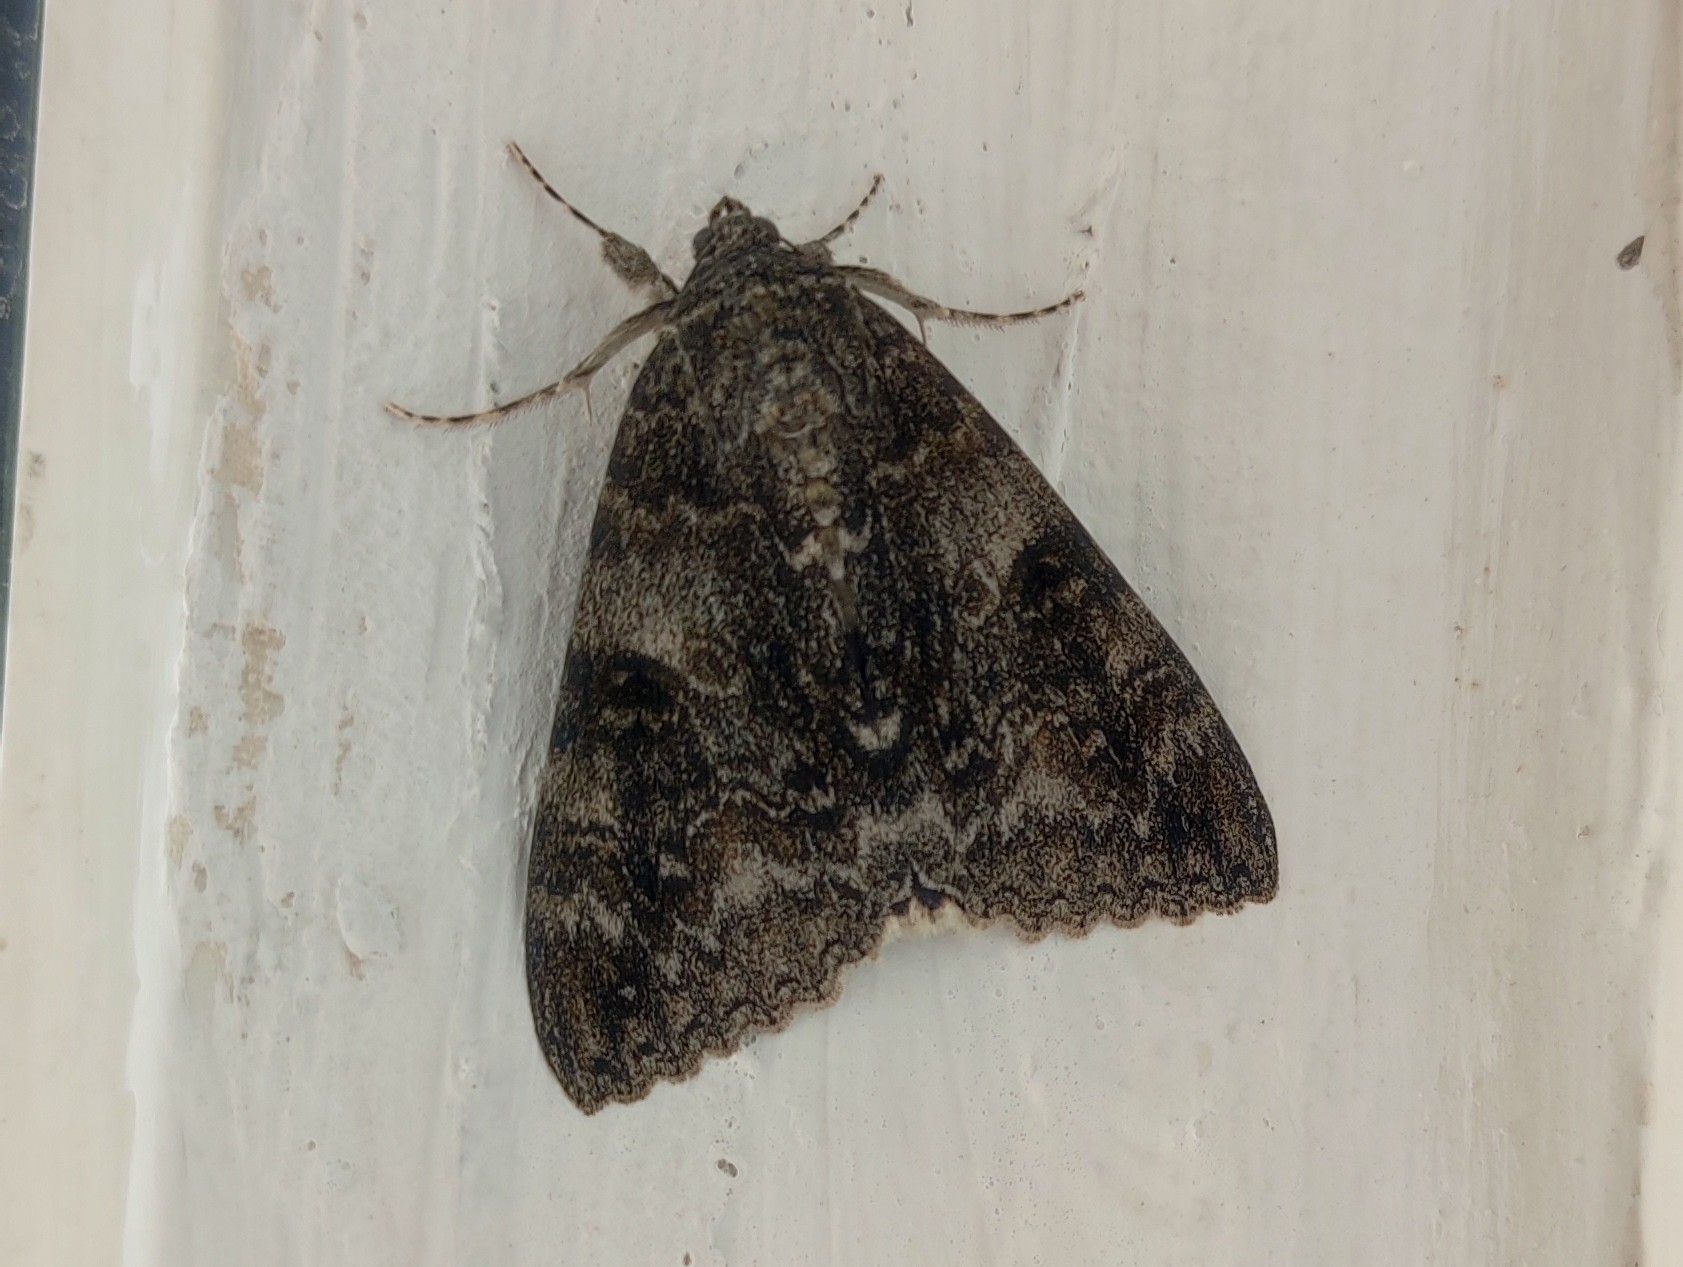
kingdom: Animalia
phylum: Arthropoda
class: Insecta
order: Lepidoptera
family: Erebidae
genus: Catocala
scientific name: Catocala nupta
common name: Red underwing
